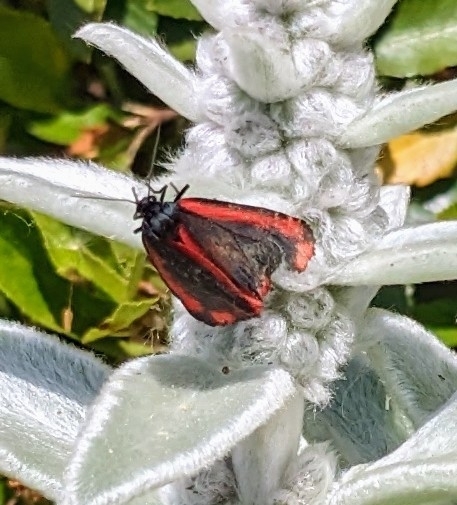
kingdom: Animalia
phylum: Arthropoda
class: Insecta
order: Lepidoptera
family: Erebidae
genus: Tyria
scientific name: Tyria jacobaeae
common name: Cinnabar
